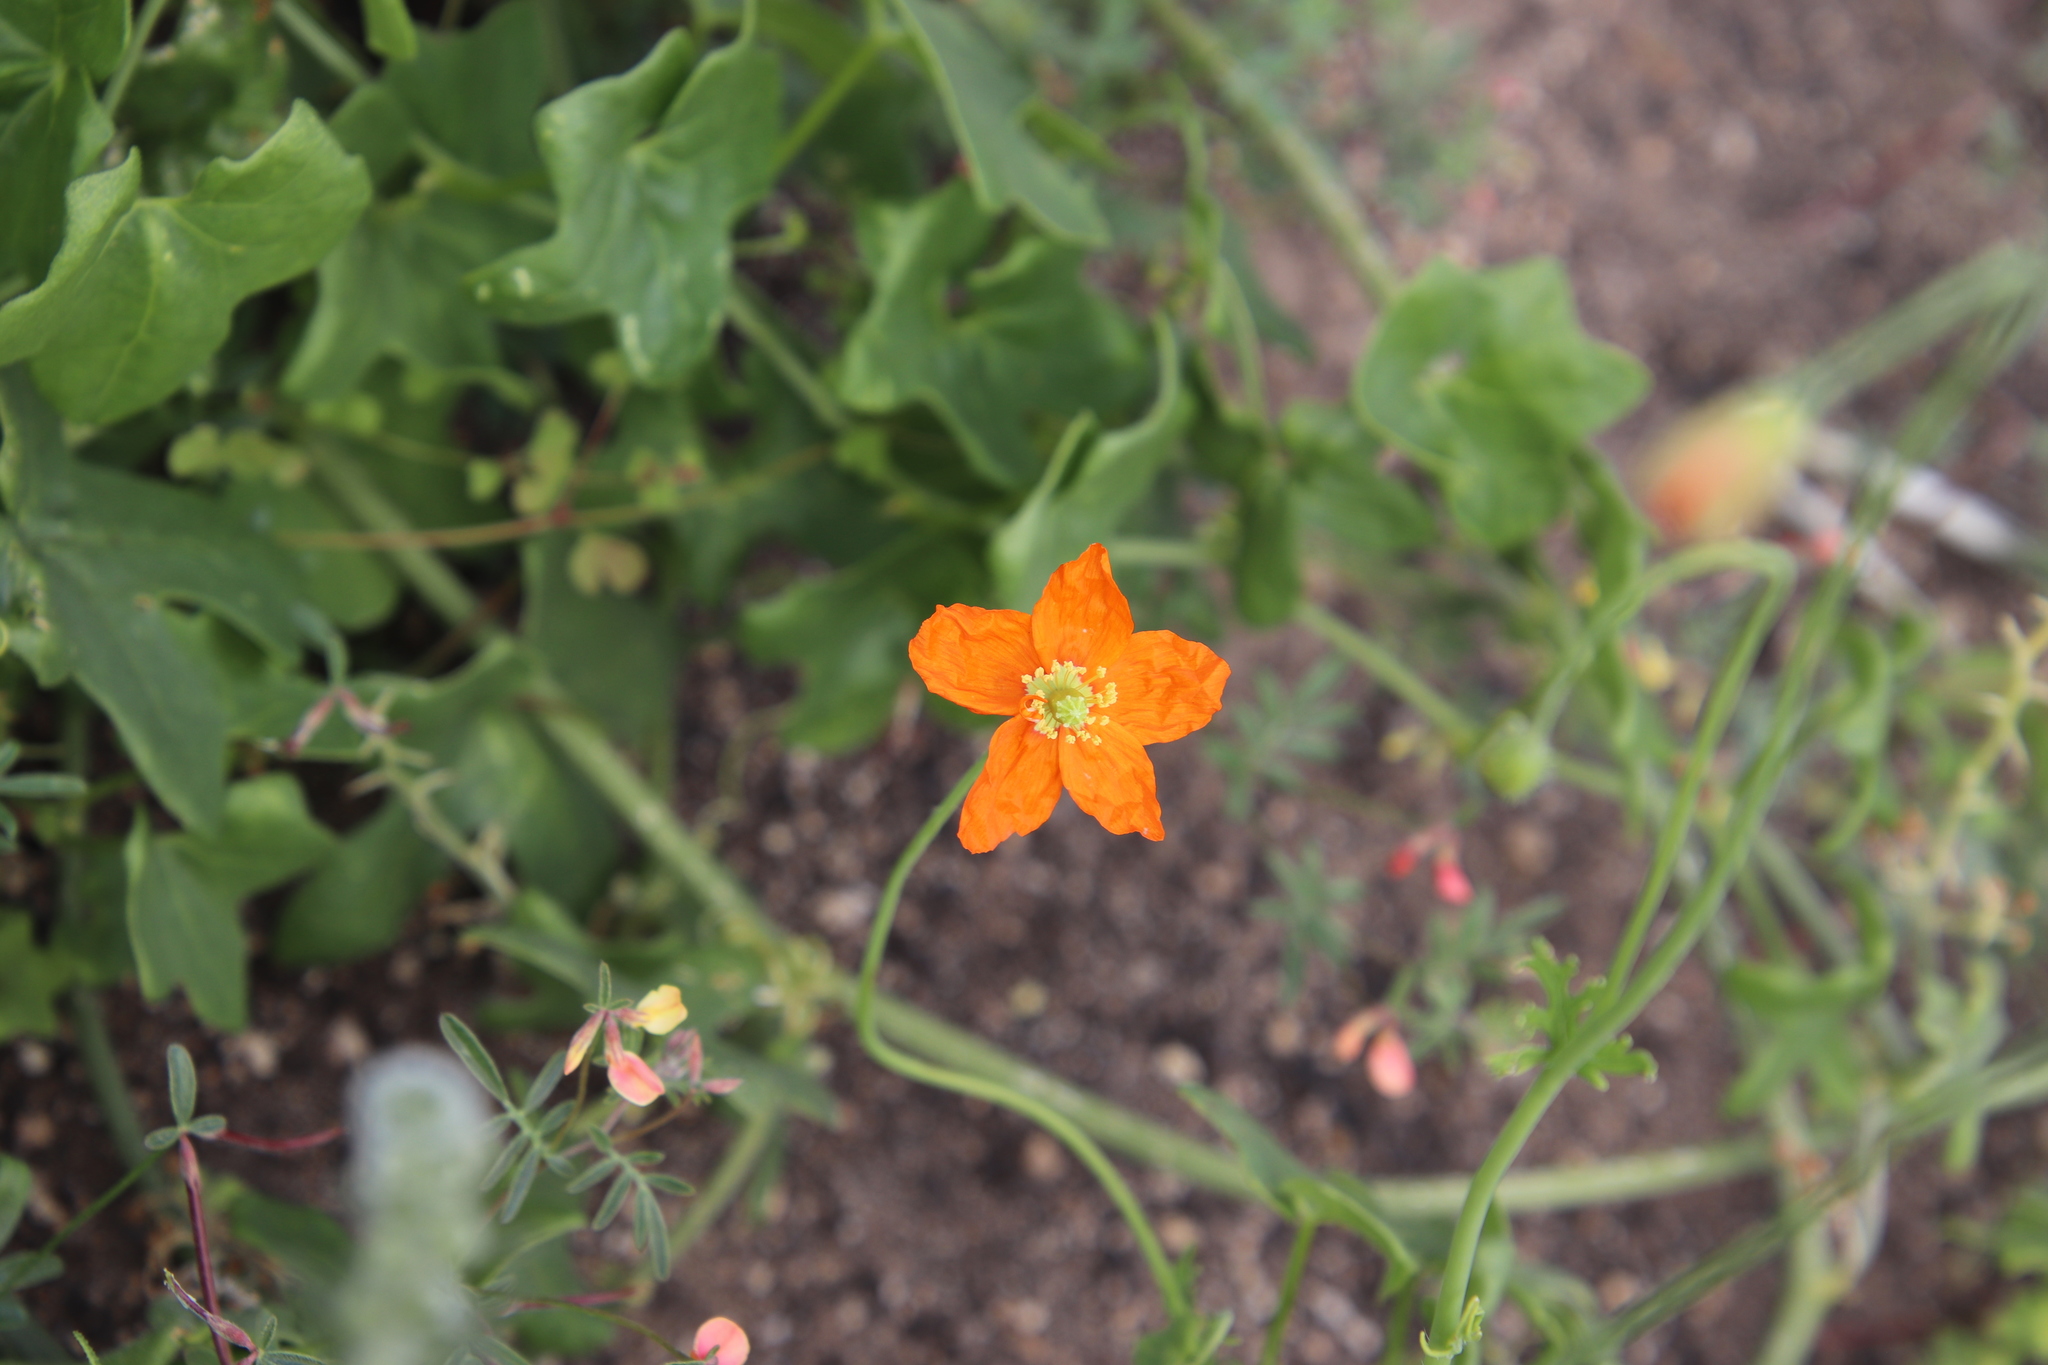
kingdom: Plantae
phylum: Tracheophyta
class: Magnoliopsida
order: Ranunculales
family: Papaveraceae
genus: Papaver
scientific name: Papaver californicum
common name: Fire poppy
